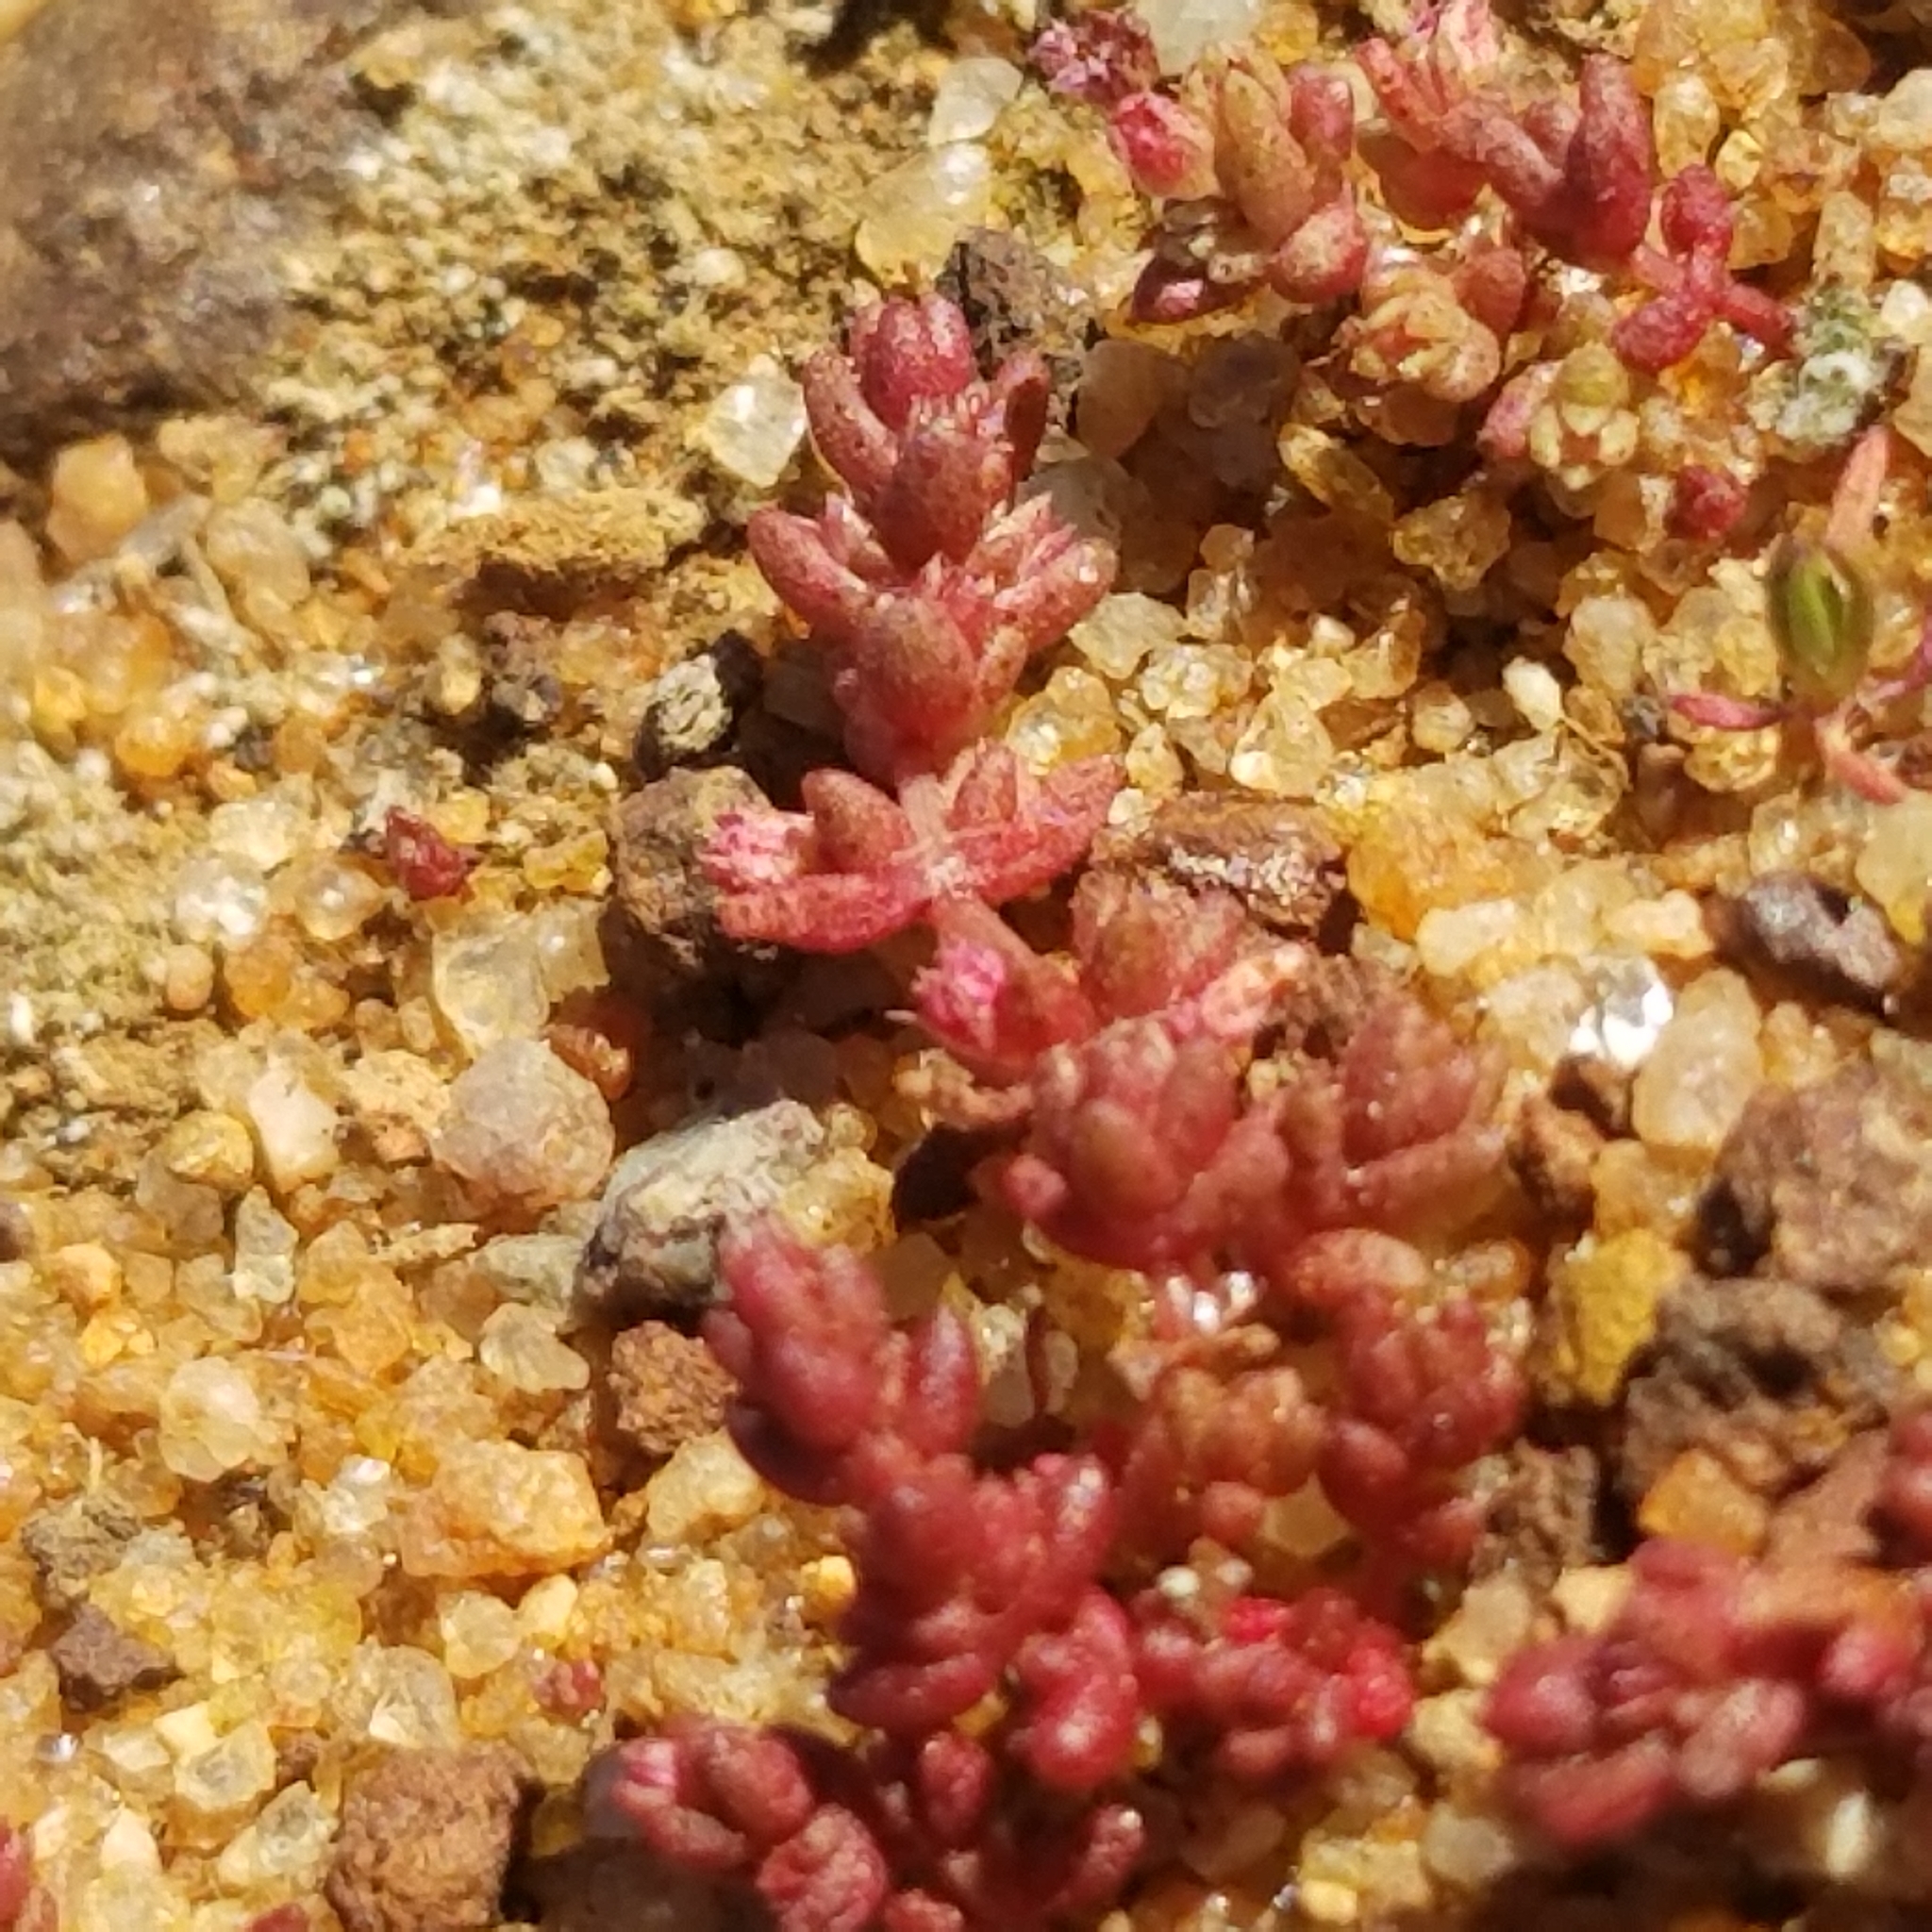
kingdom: Plantae
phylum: Tracheophyta
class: Magnoliopsida
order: Saxifragales
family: Crassulaceae
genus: Crassula
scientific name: Crassula connata
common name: Erect pygmyweed
